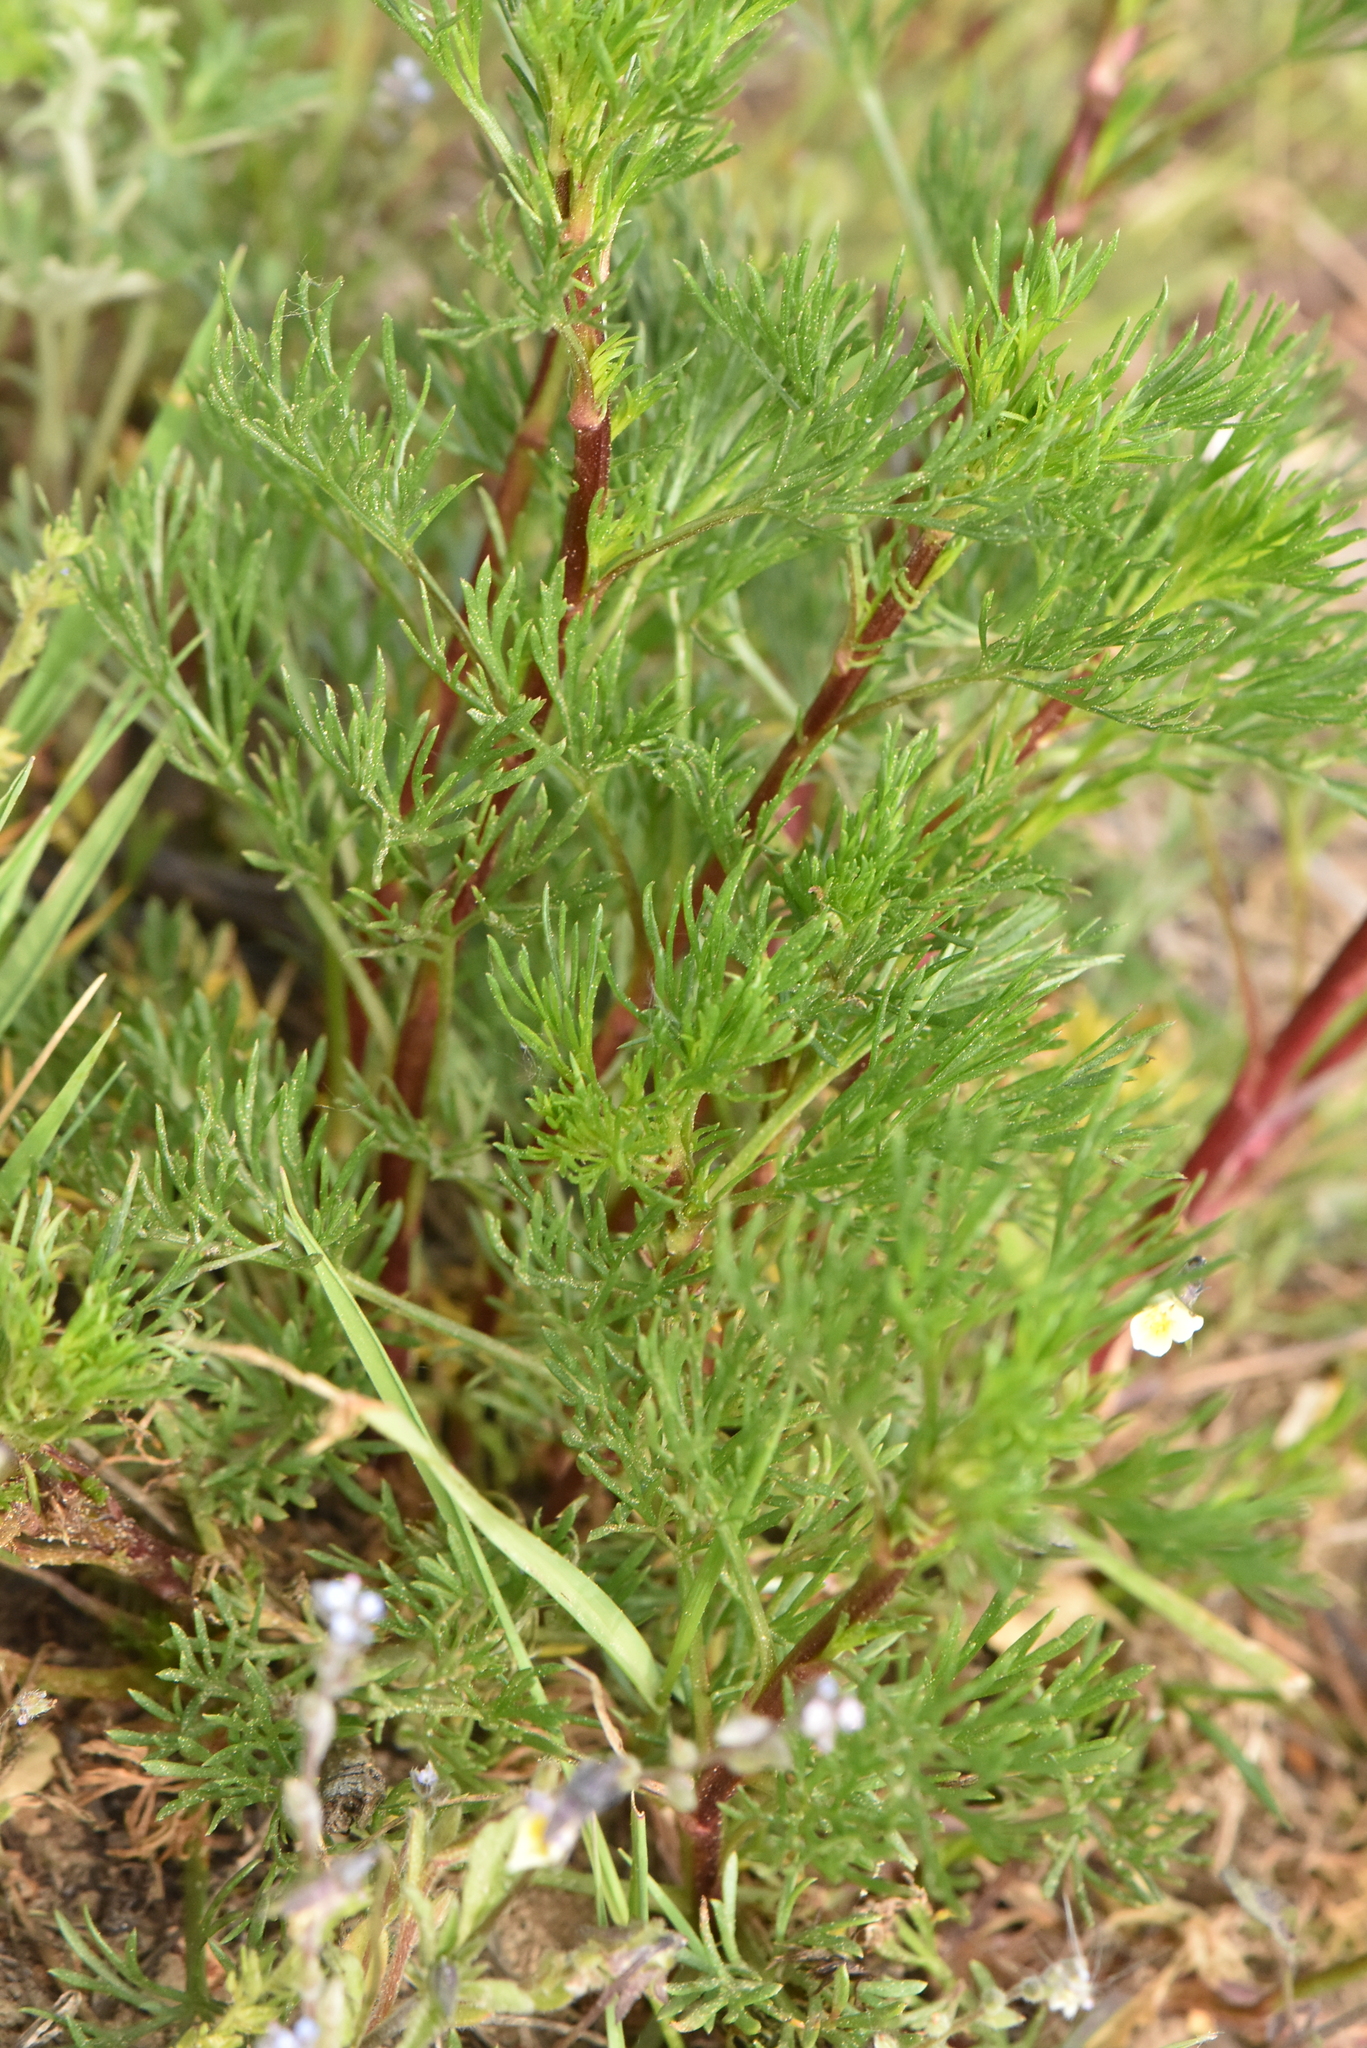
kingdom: Plantae
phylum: Tracheophyta
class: Magnoliopsida
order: Asterales
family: Asteraceae
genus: Artemisia
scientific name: Artemisia campestris
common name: Field wormwood
